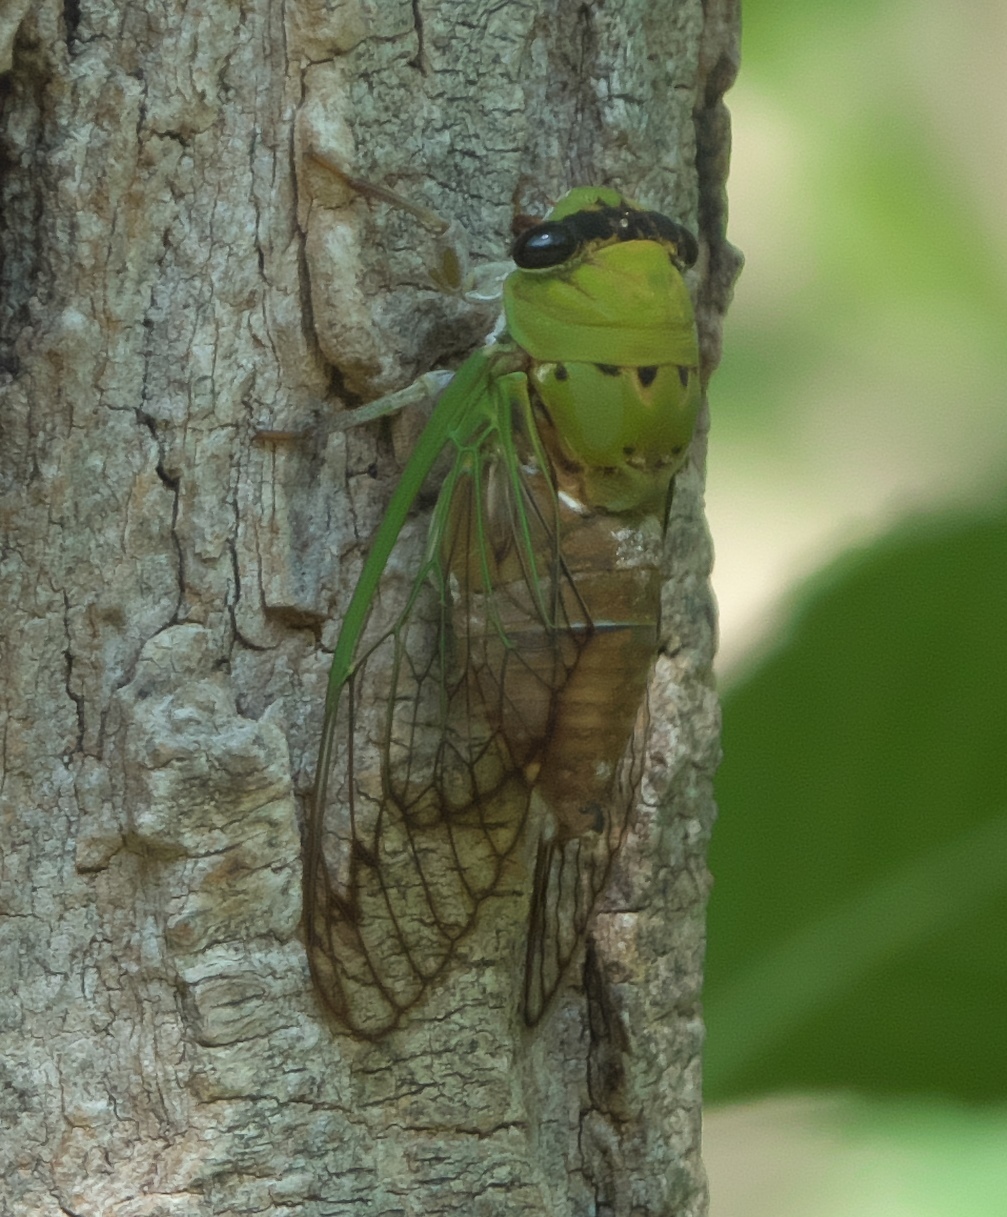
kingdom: Animalia
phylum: Arthropoda
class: Insecta
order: Hemiptera
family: Cicadidae
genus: Neotibicen
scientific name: Neotibicen superbus
